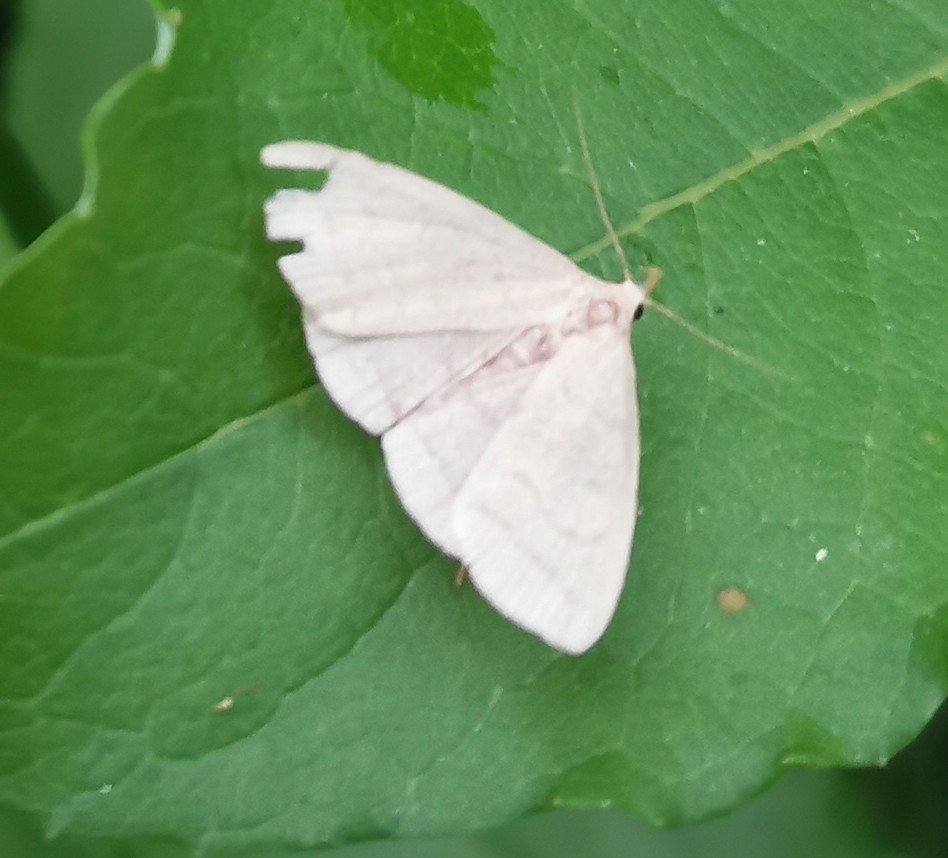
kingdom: Animalia
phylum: Arthropoda
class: Insecta
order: Lepidoptera
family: Erebidae
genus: Herminia
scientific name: Herminia tarsipennalis
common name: Fan-foot
